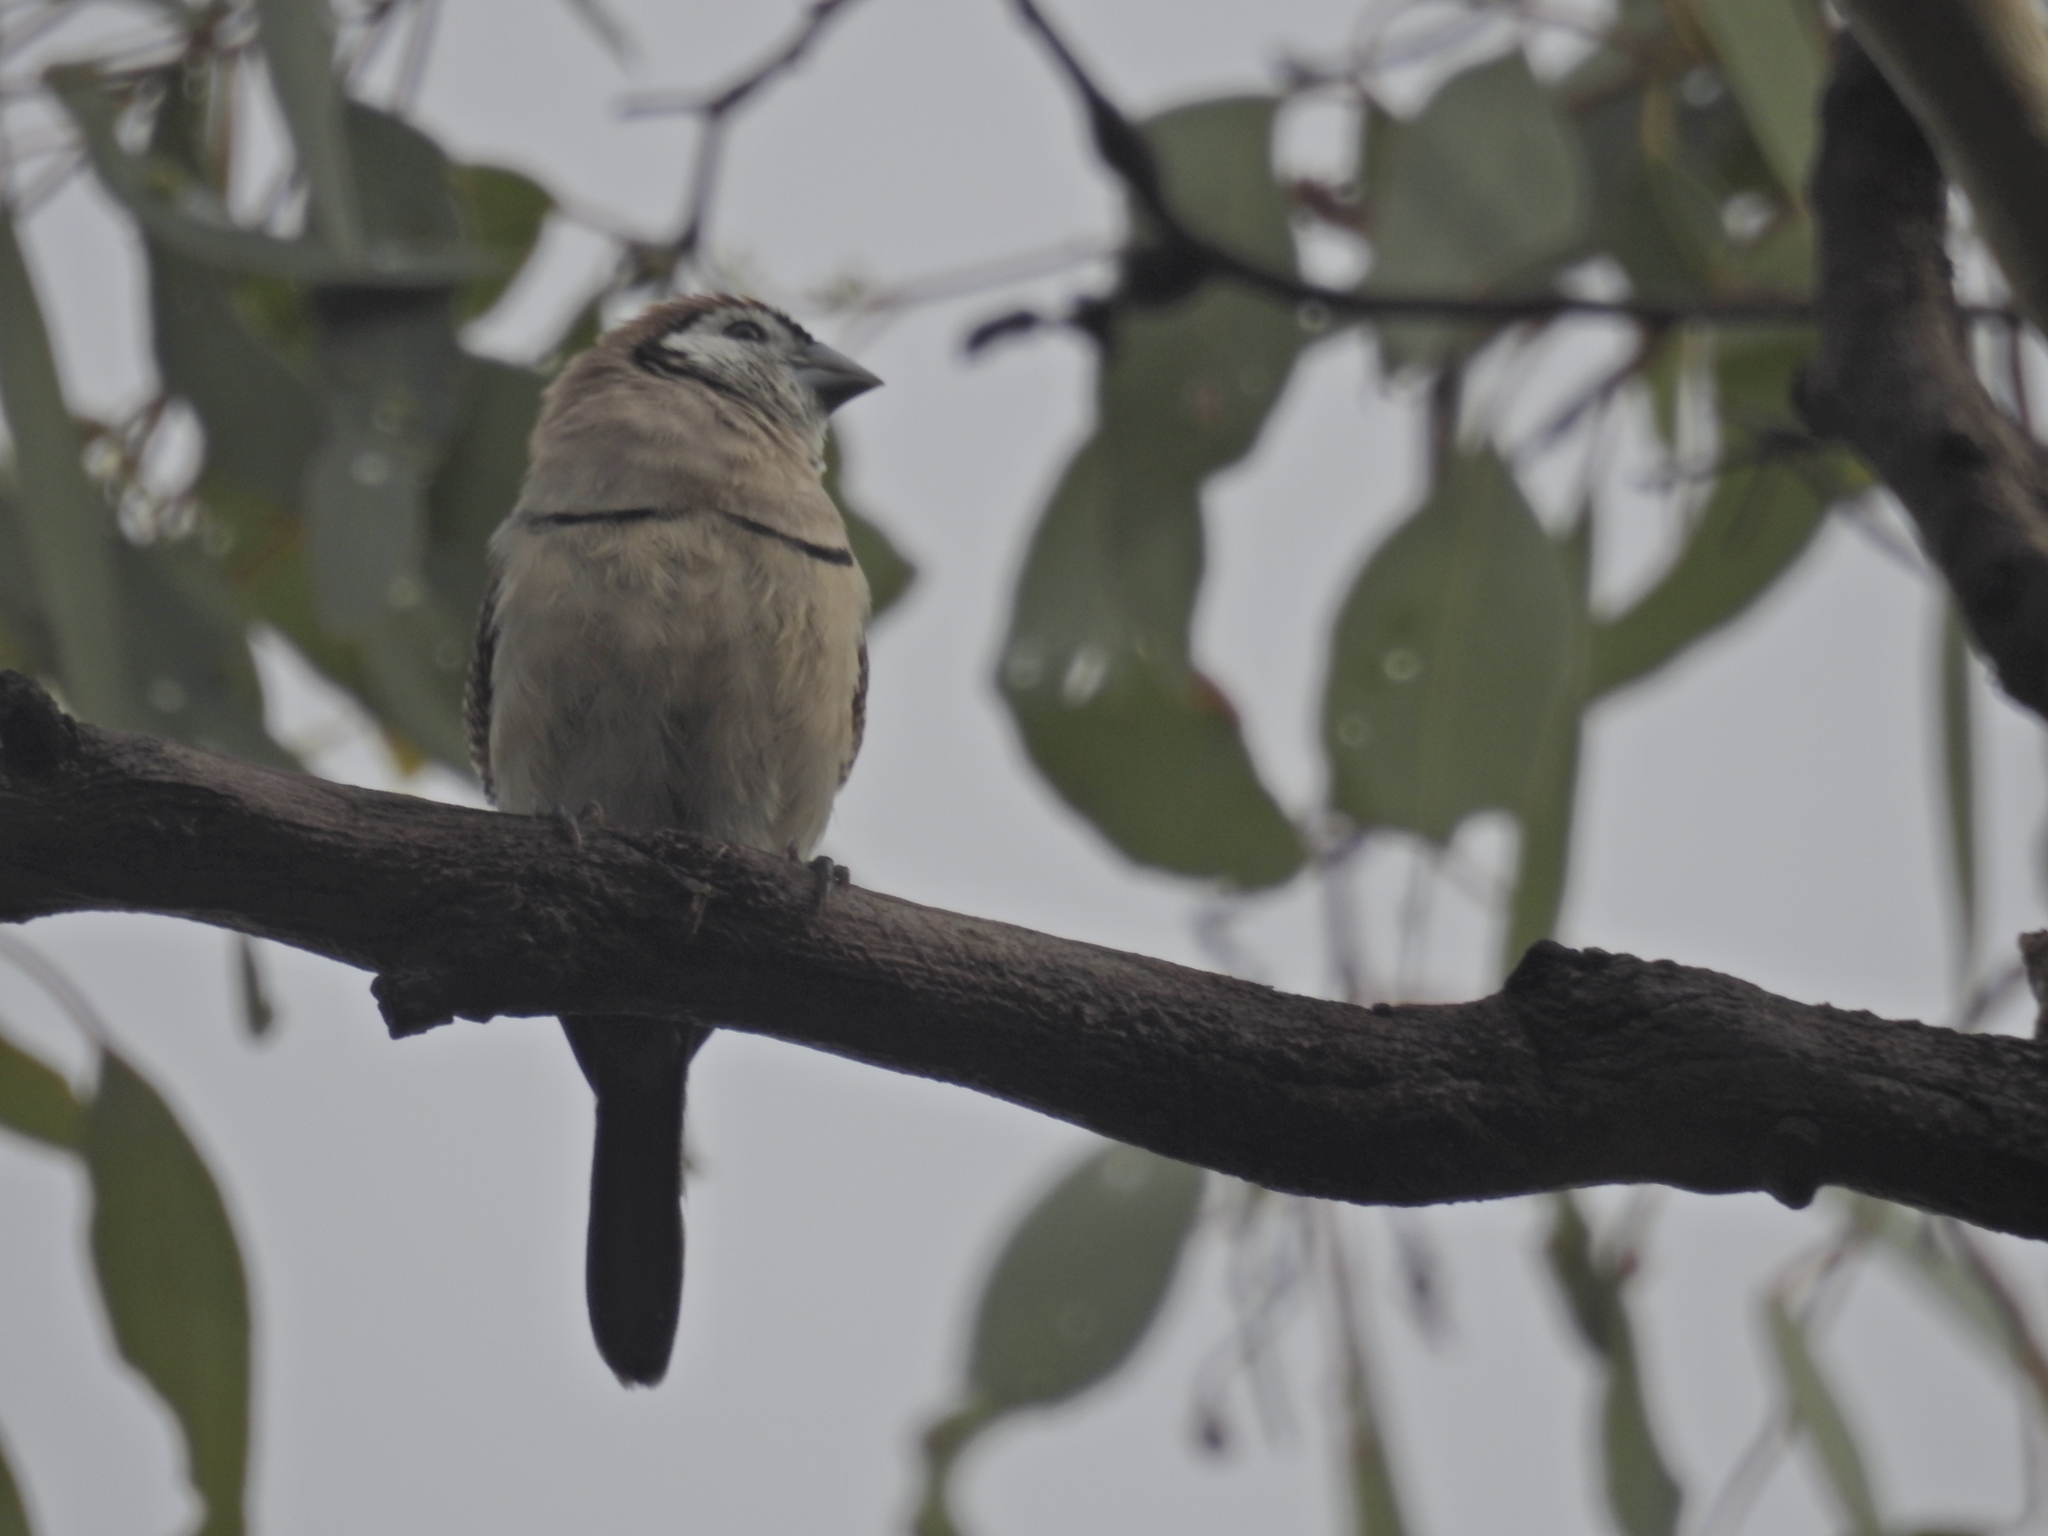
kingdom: Animalia
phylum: Chordata
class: Aves
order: Passeriformes
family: Estrildidae
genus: Taeniopygia
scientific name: Taeniopygia bichenovii
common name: Double-barred finch
